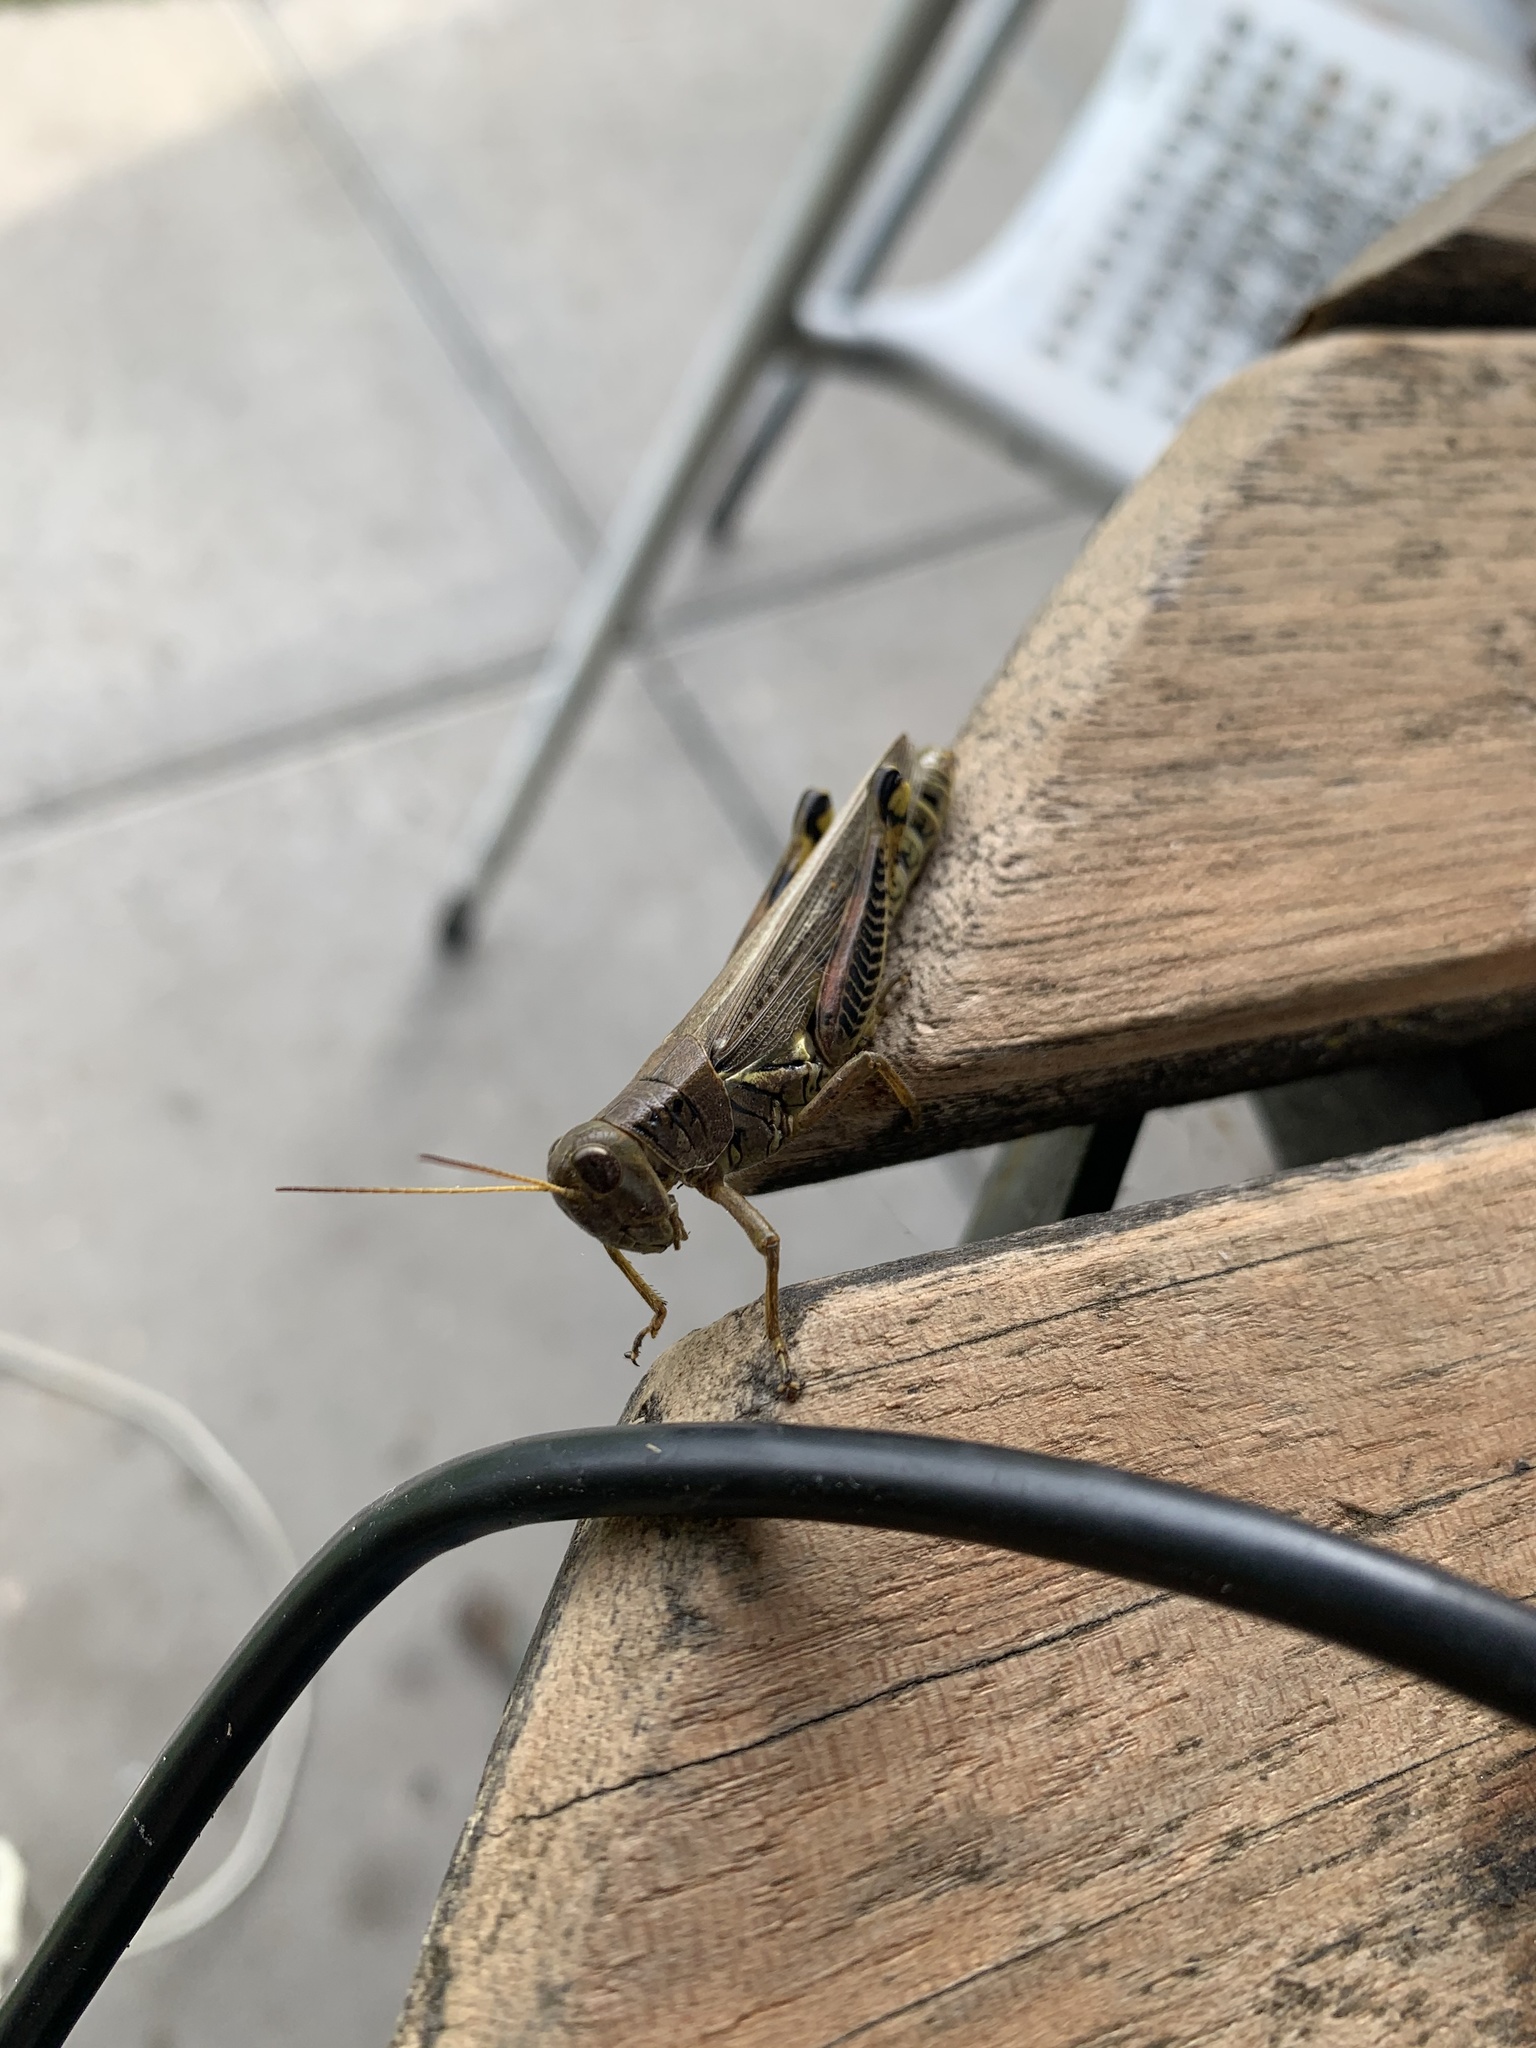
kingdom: Animalia
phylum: Arthropoda
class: Insecta
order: Orthoptera
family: Acrididae
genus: Melanoplus
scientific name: Melanoplus differentialis
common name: Differential grasshopper
